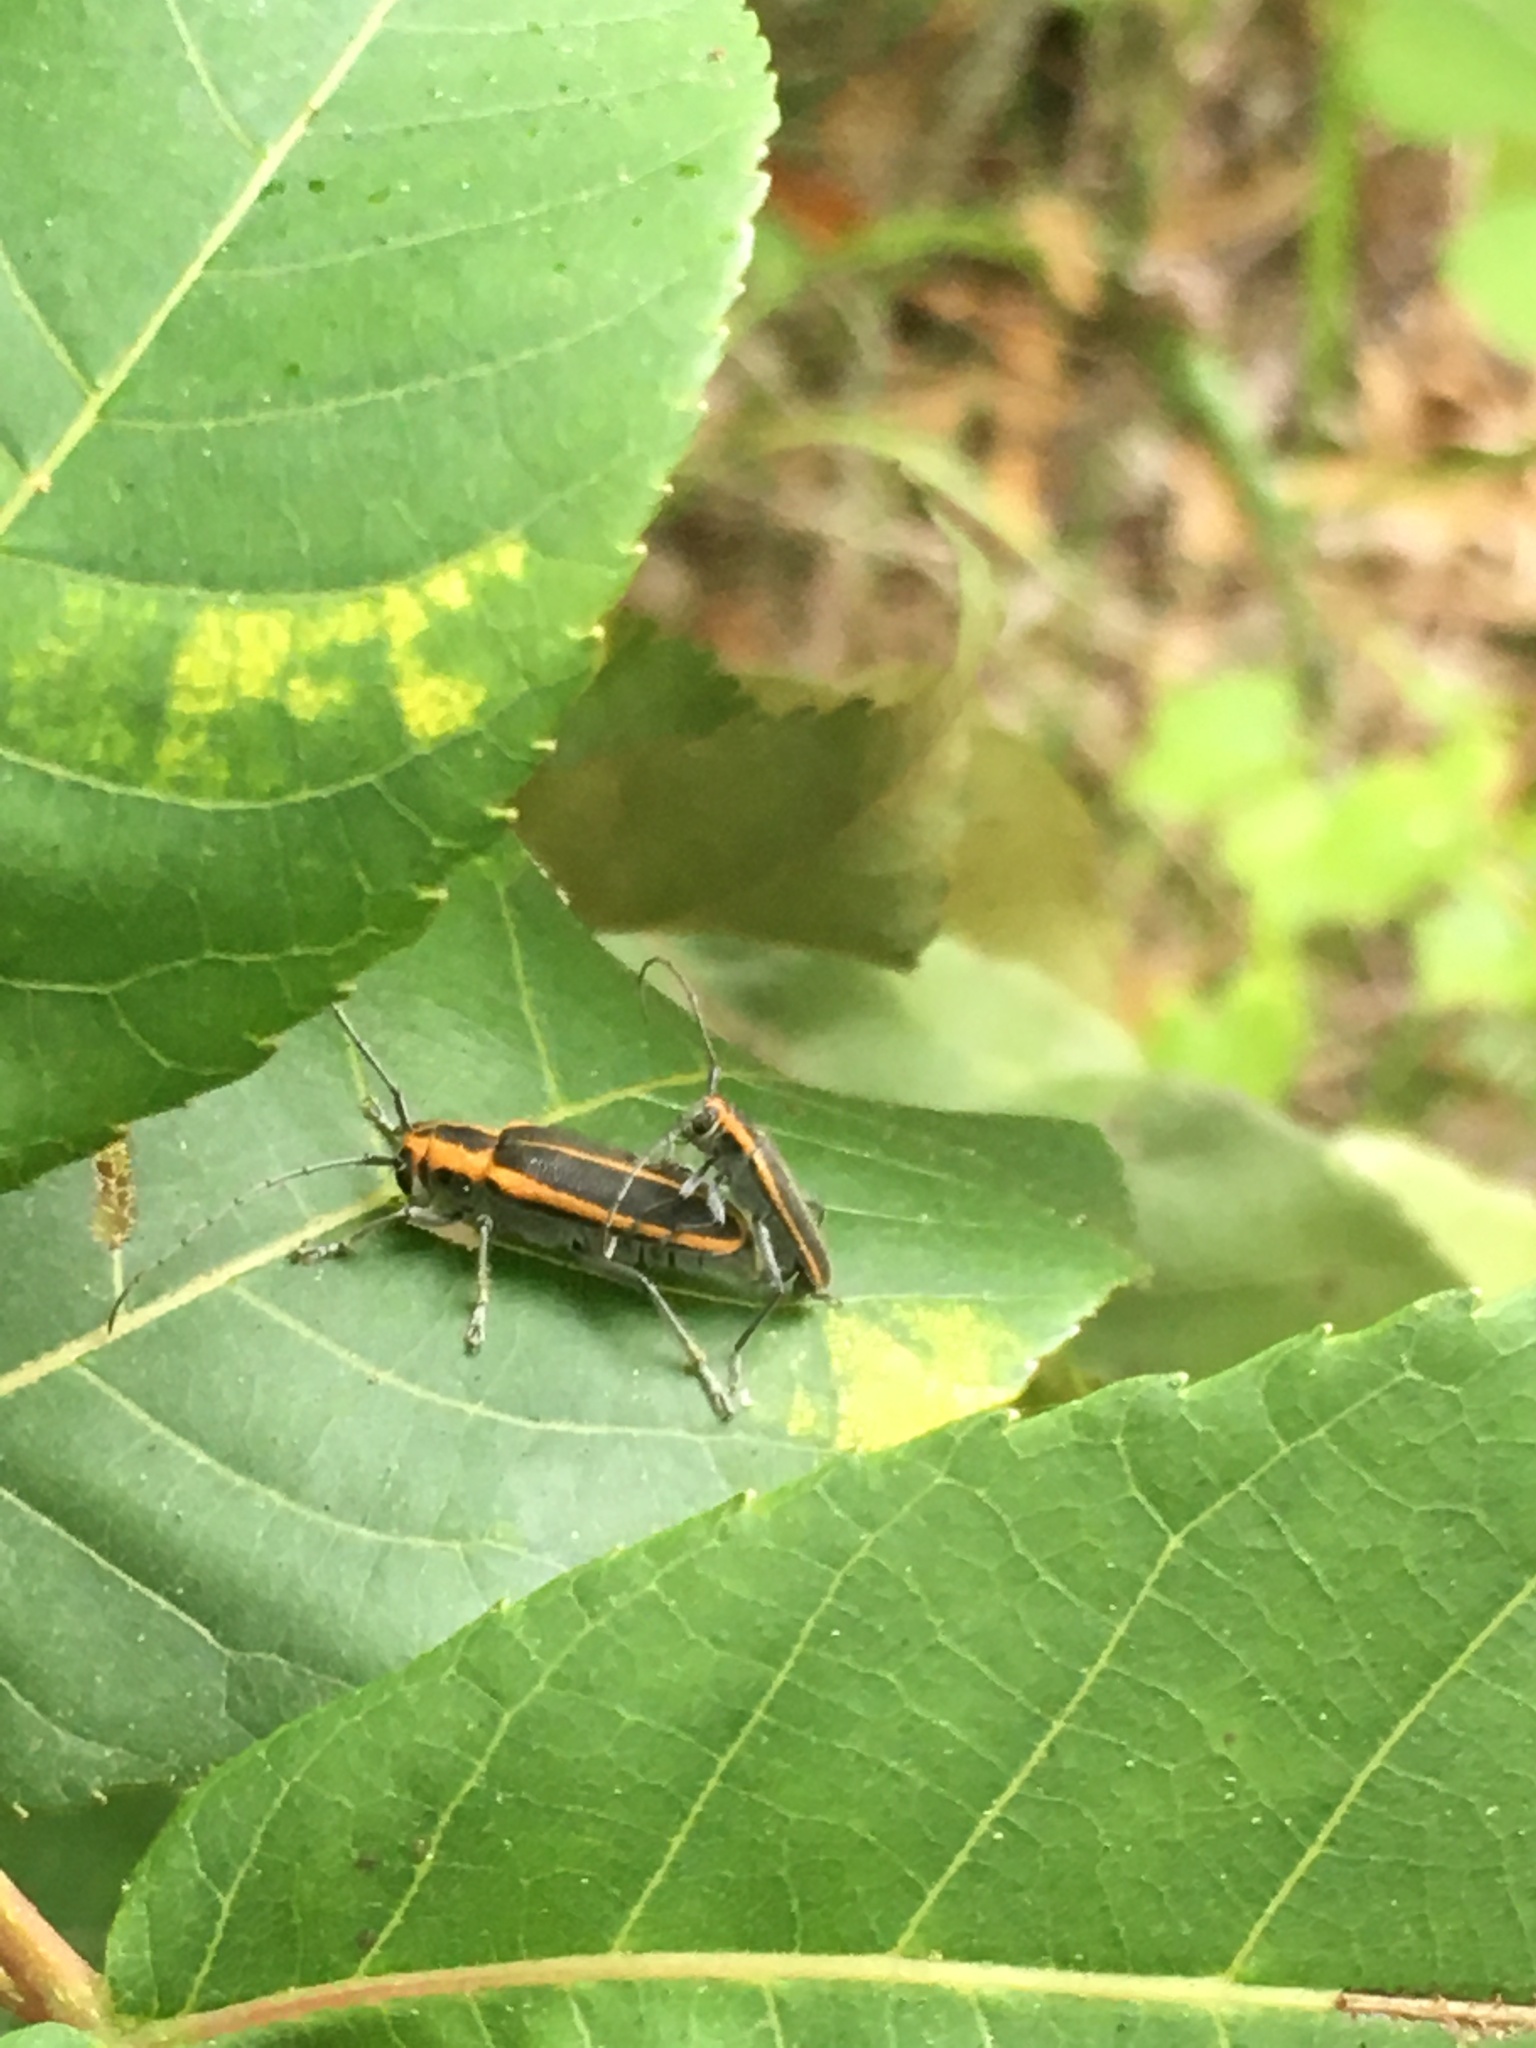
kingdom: Animalia
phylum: Arthropoda
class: Insecta
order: Coleoptera
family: Cerambycidae
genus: Saperda
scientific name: Saperda lateralis
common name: Red-edged saperda
